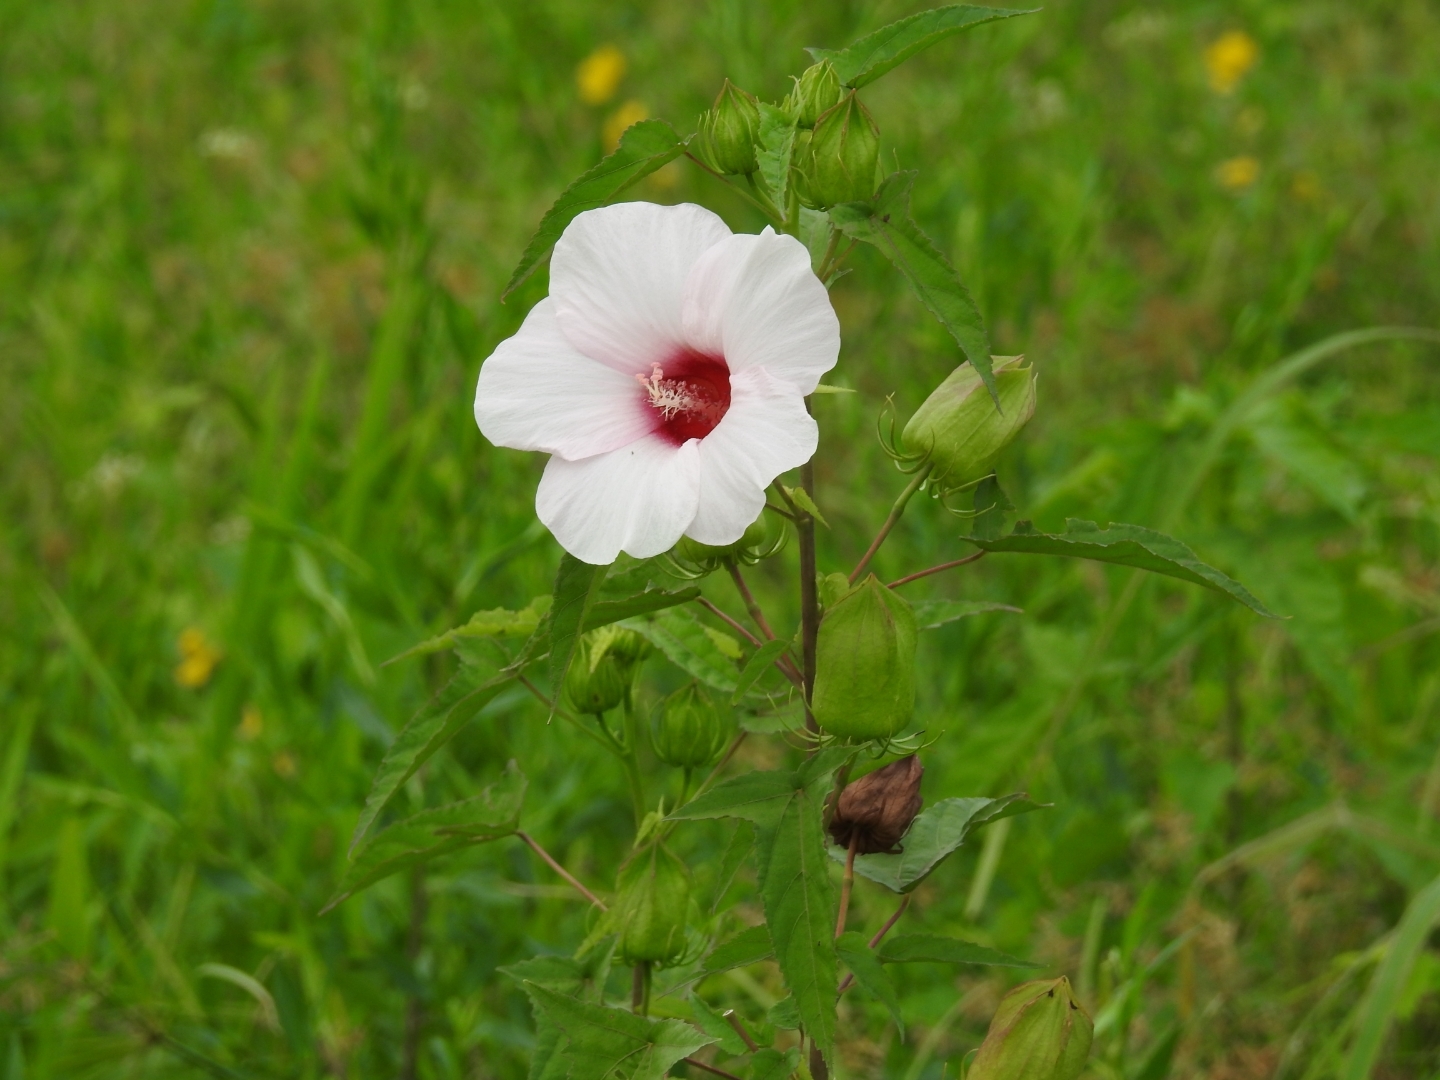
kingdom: Plantae
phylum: Tracheophyta
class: Magnoliopsida
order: Malvales
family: Malvaceae
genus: Hibiscus
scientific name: Hibiscus laevis
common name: Scarlet rose-mallow
